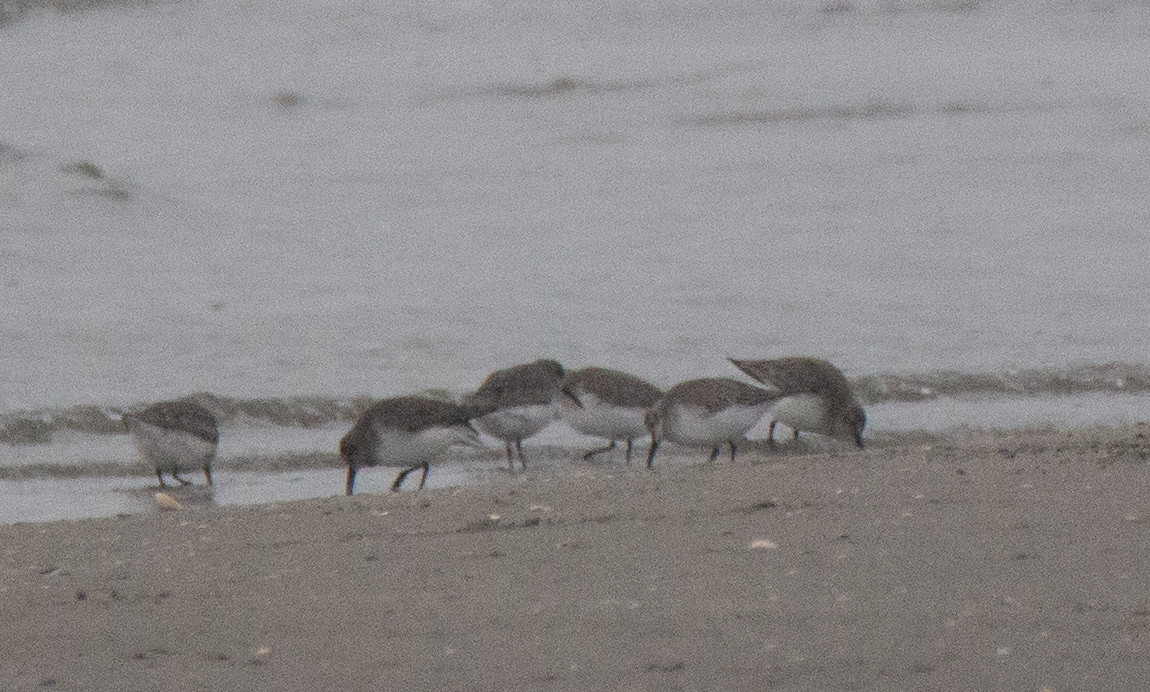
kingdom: Animalia
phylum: Chordata
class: Aves
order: Charadriiformes
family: Scolopacidae
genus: Calidris
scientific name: Calidris alpina
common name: Dunlin
